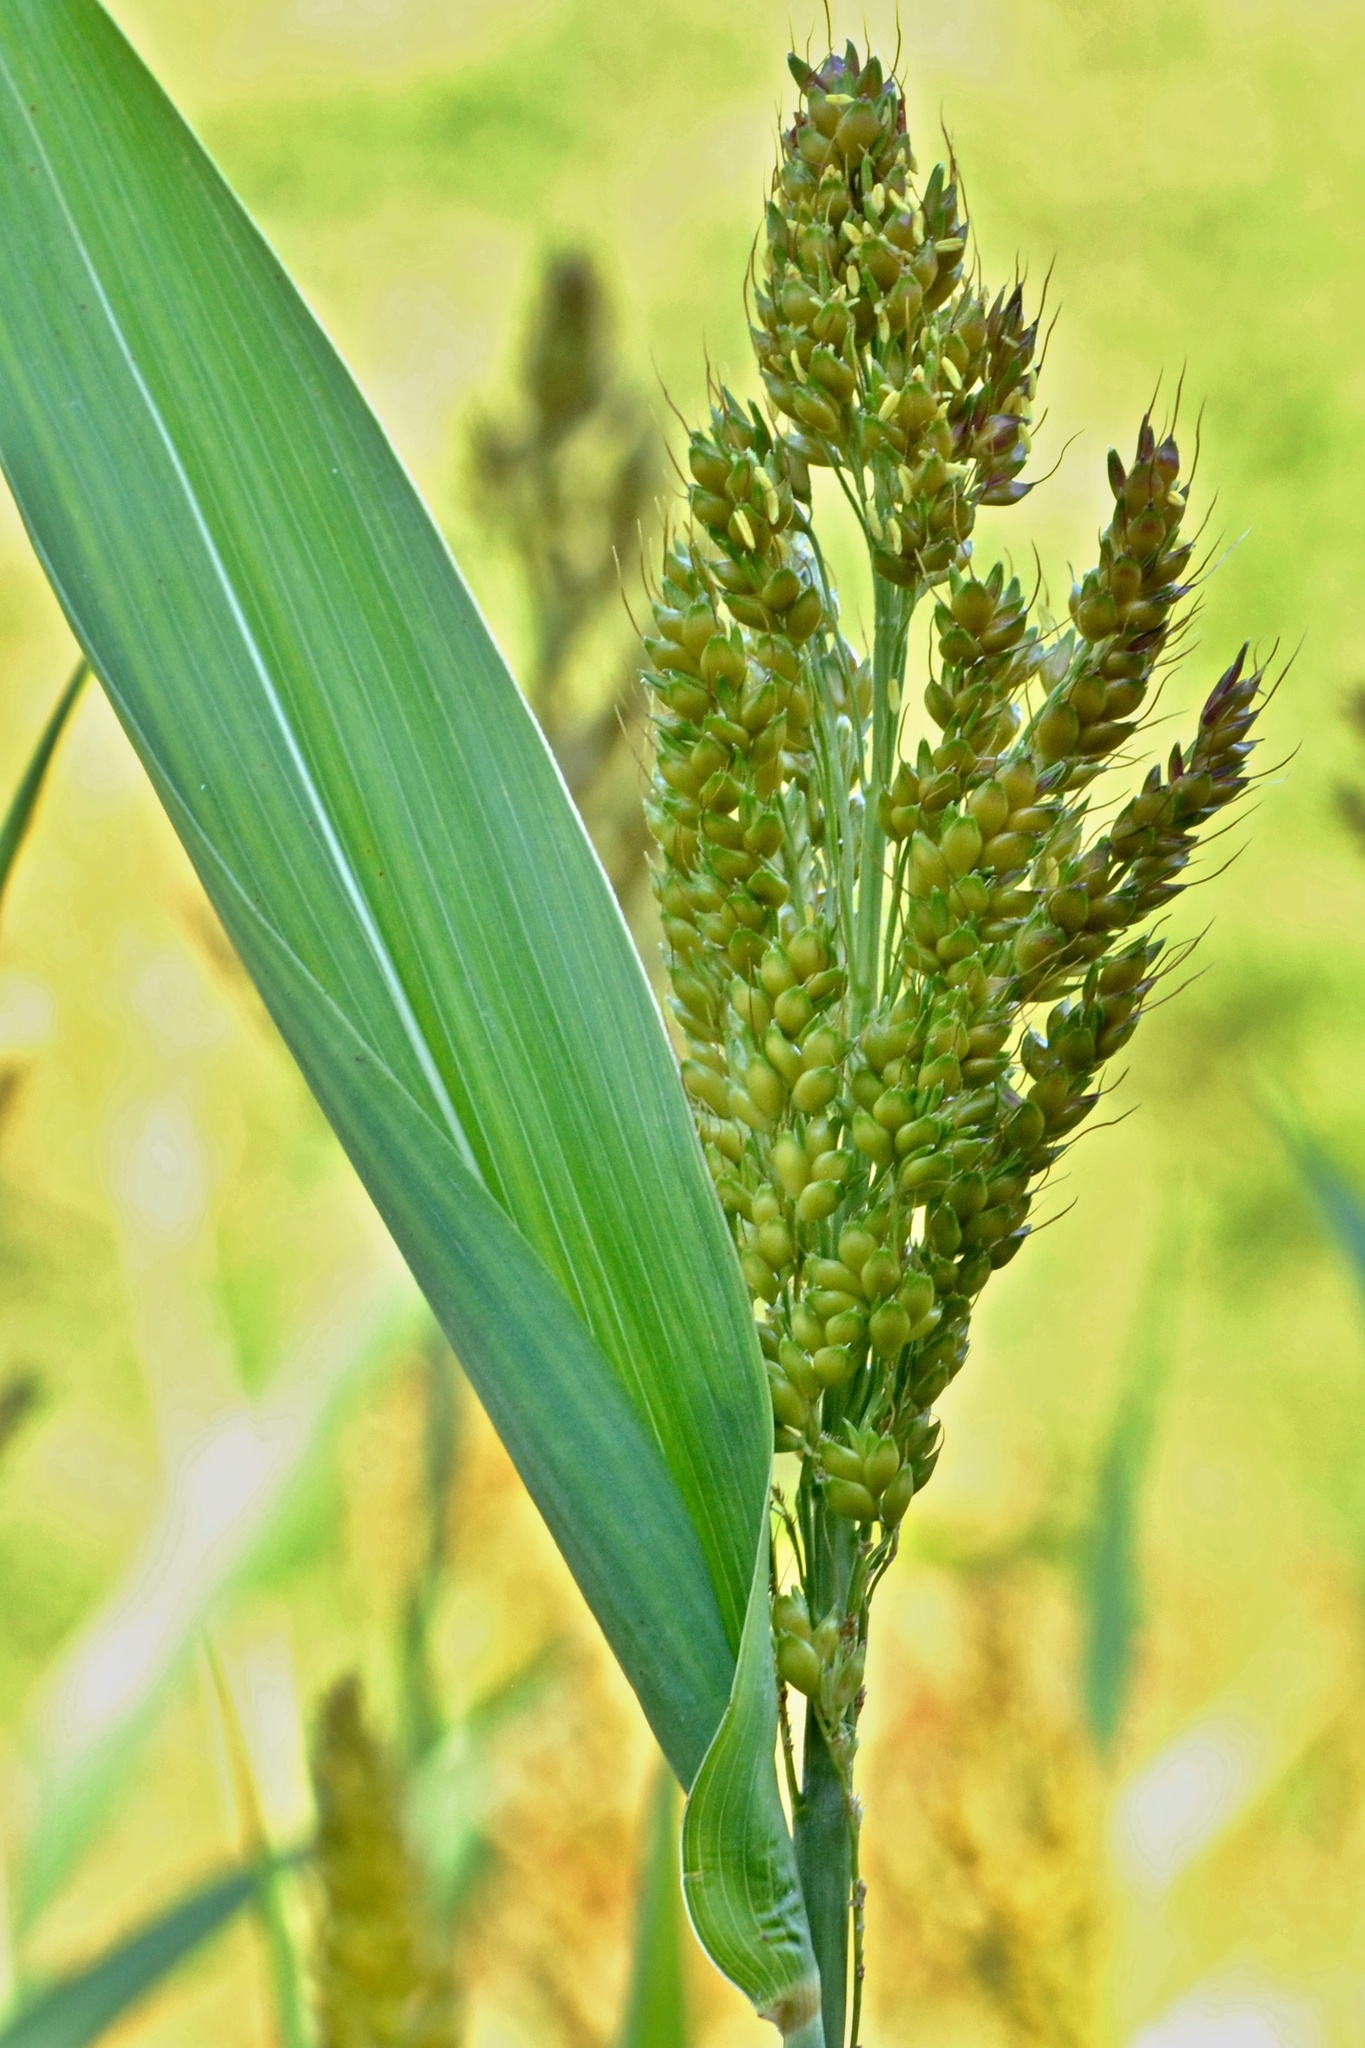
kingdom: Plantae
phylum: Tracheophyta
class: Liliopsida
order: Poales
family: Poaceae
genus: Sorghum
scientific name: Sorghum halepense
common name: Johnson-grass
